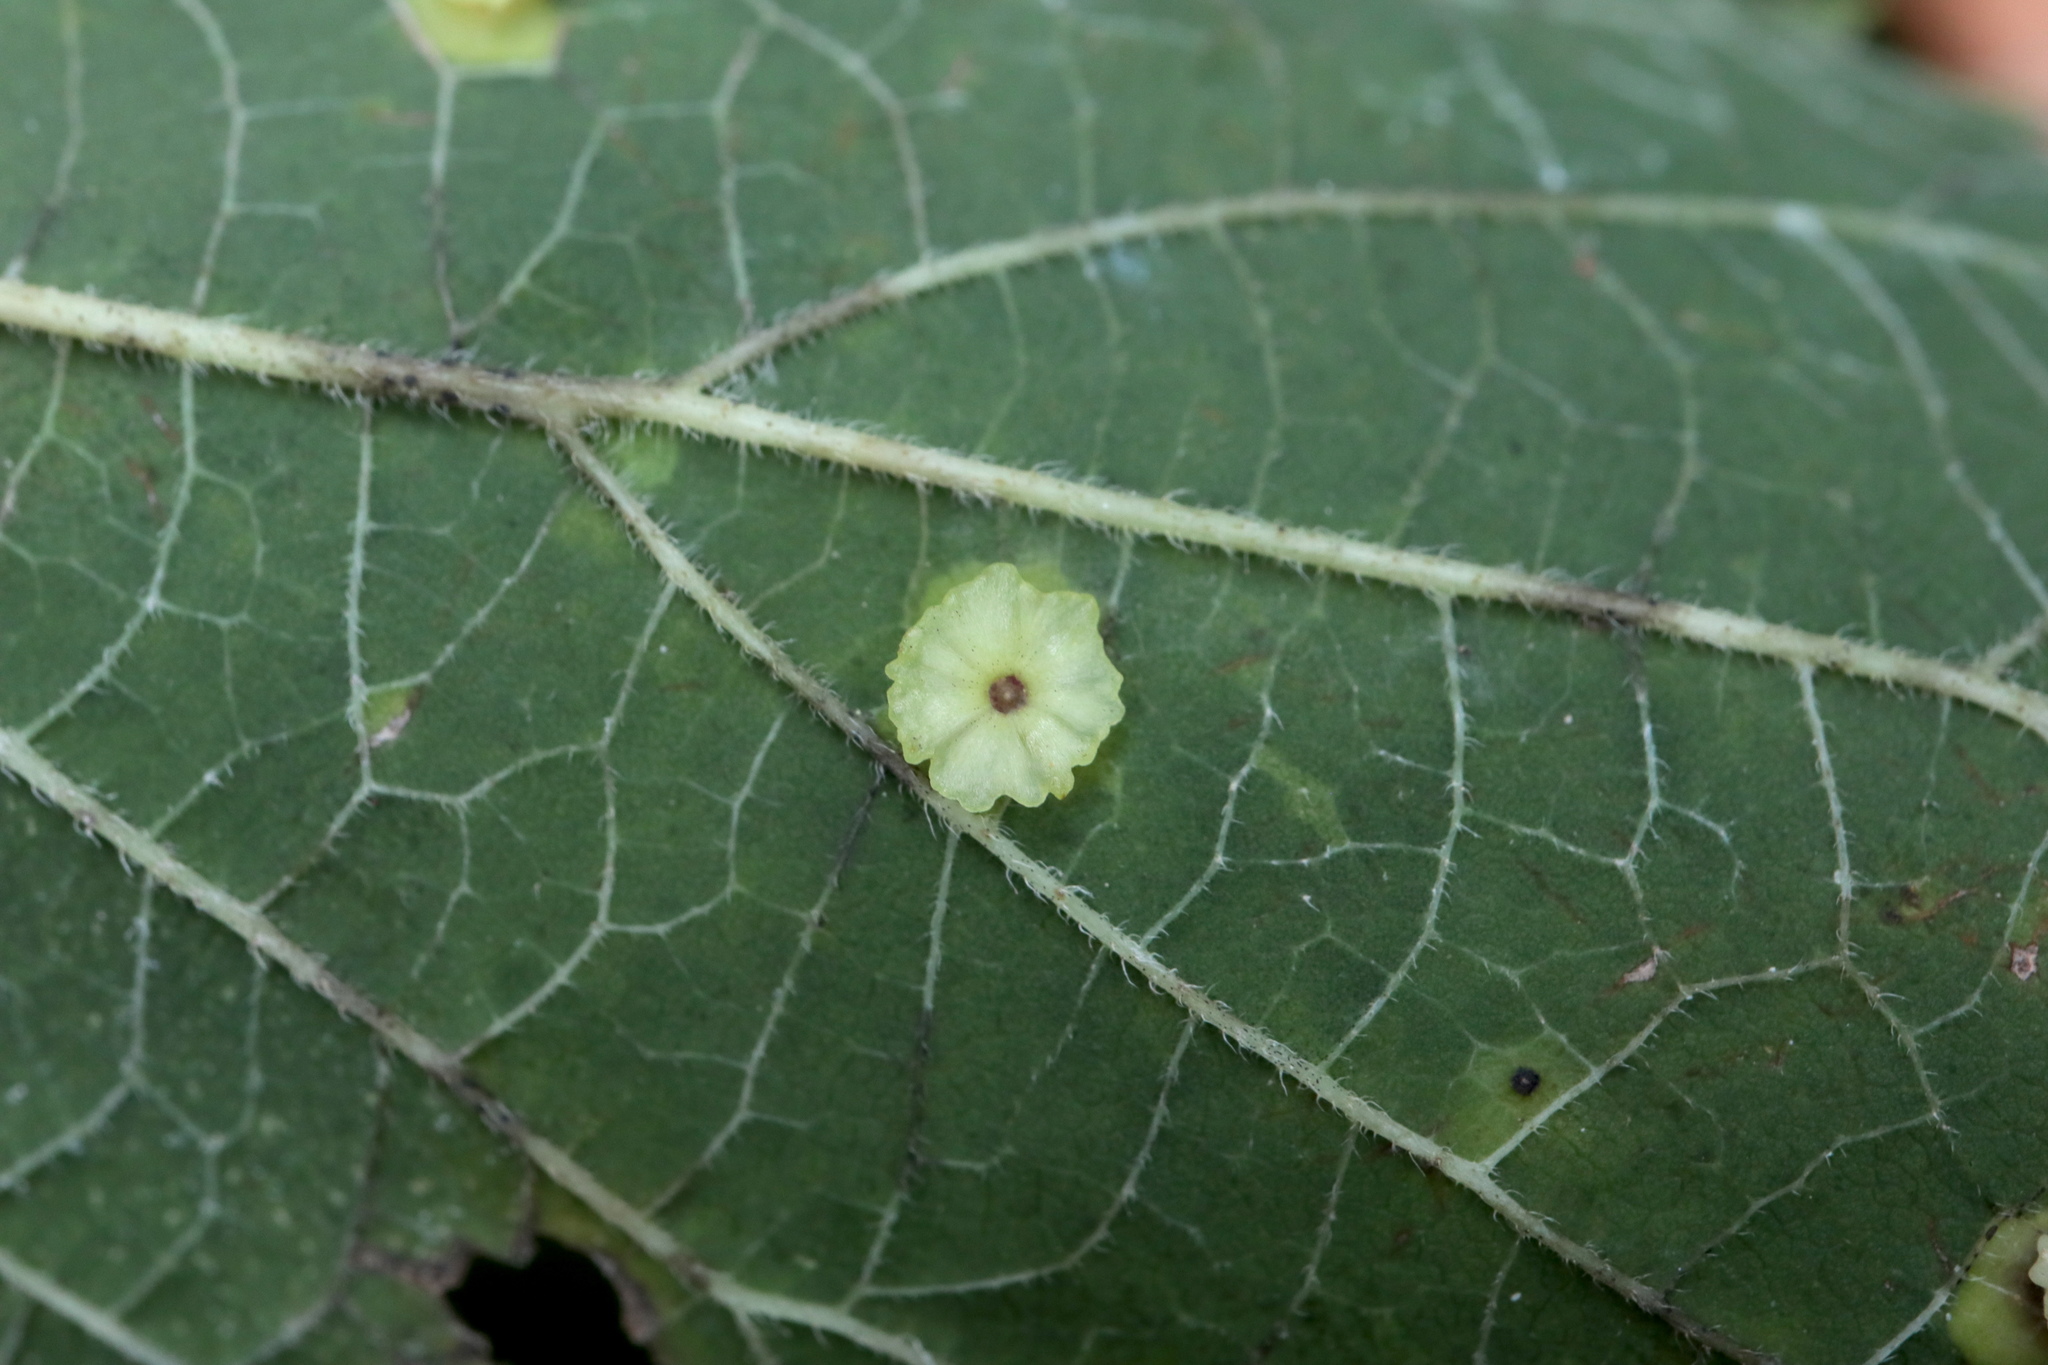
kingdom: Animalia
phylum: Arthropoda
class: Insecta
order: Hemiptera
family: Aphalaridae
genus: Pachypsylla
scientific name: Pachypsylla celtidisasterisca
